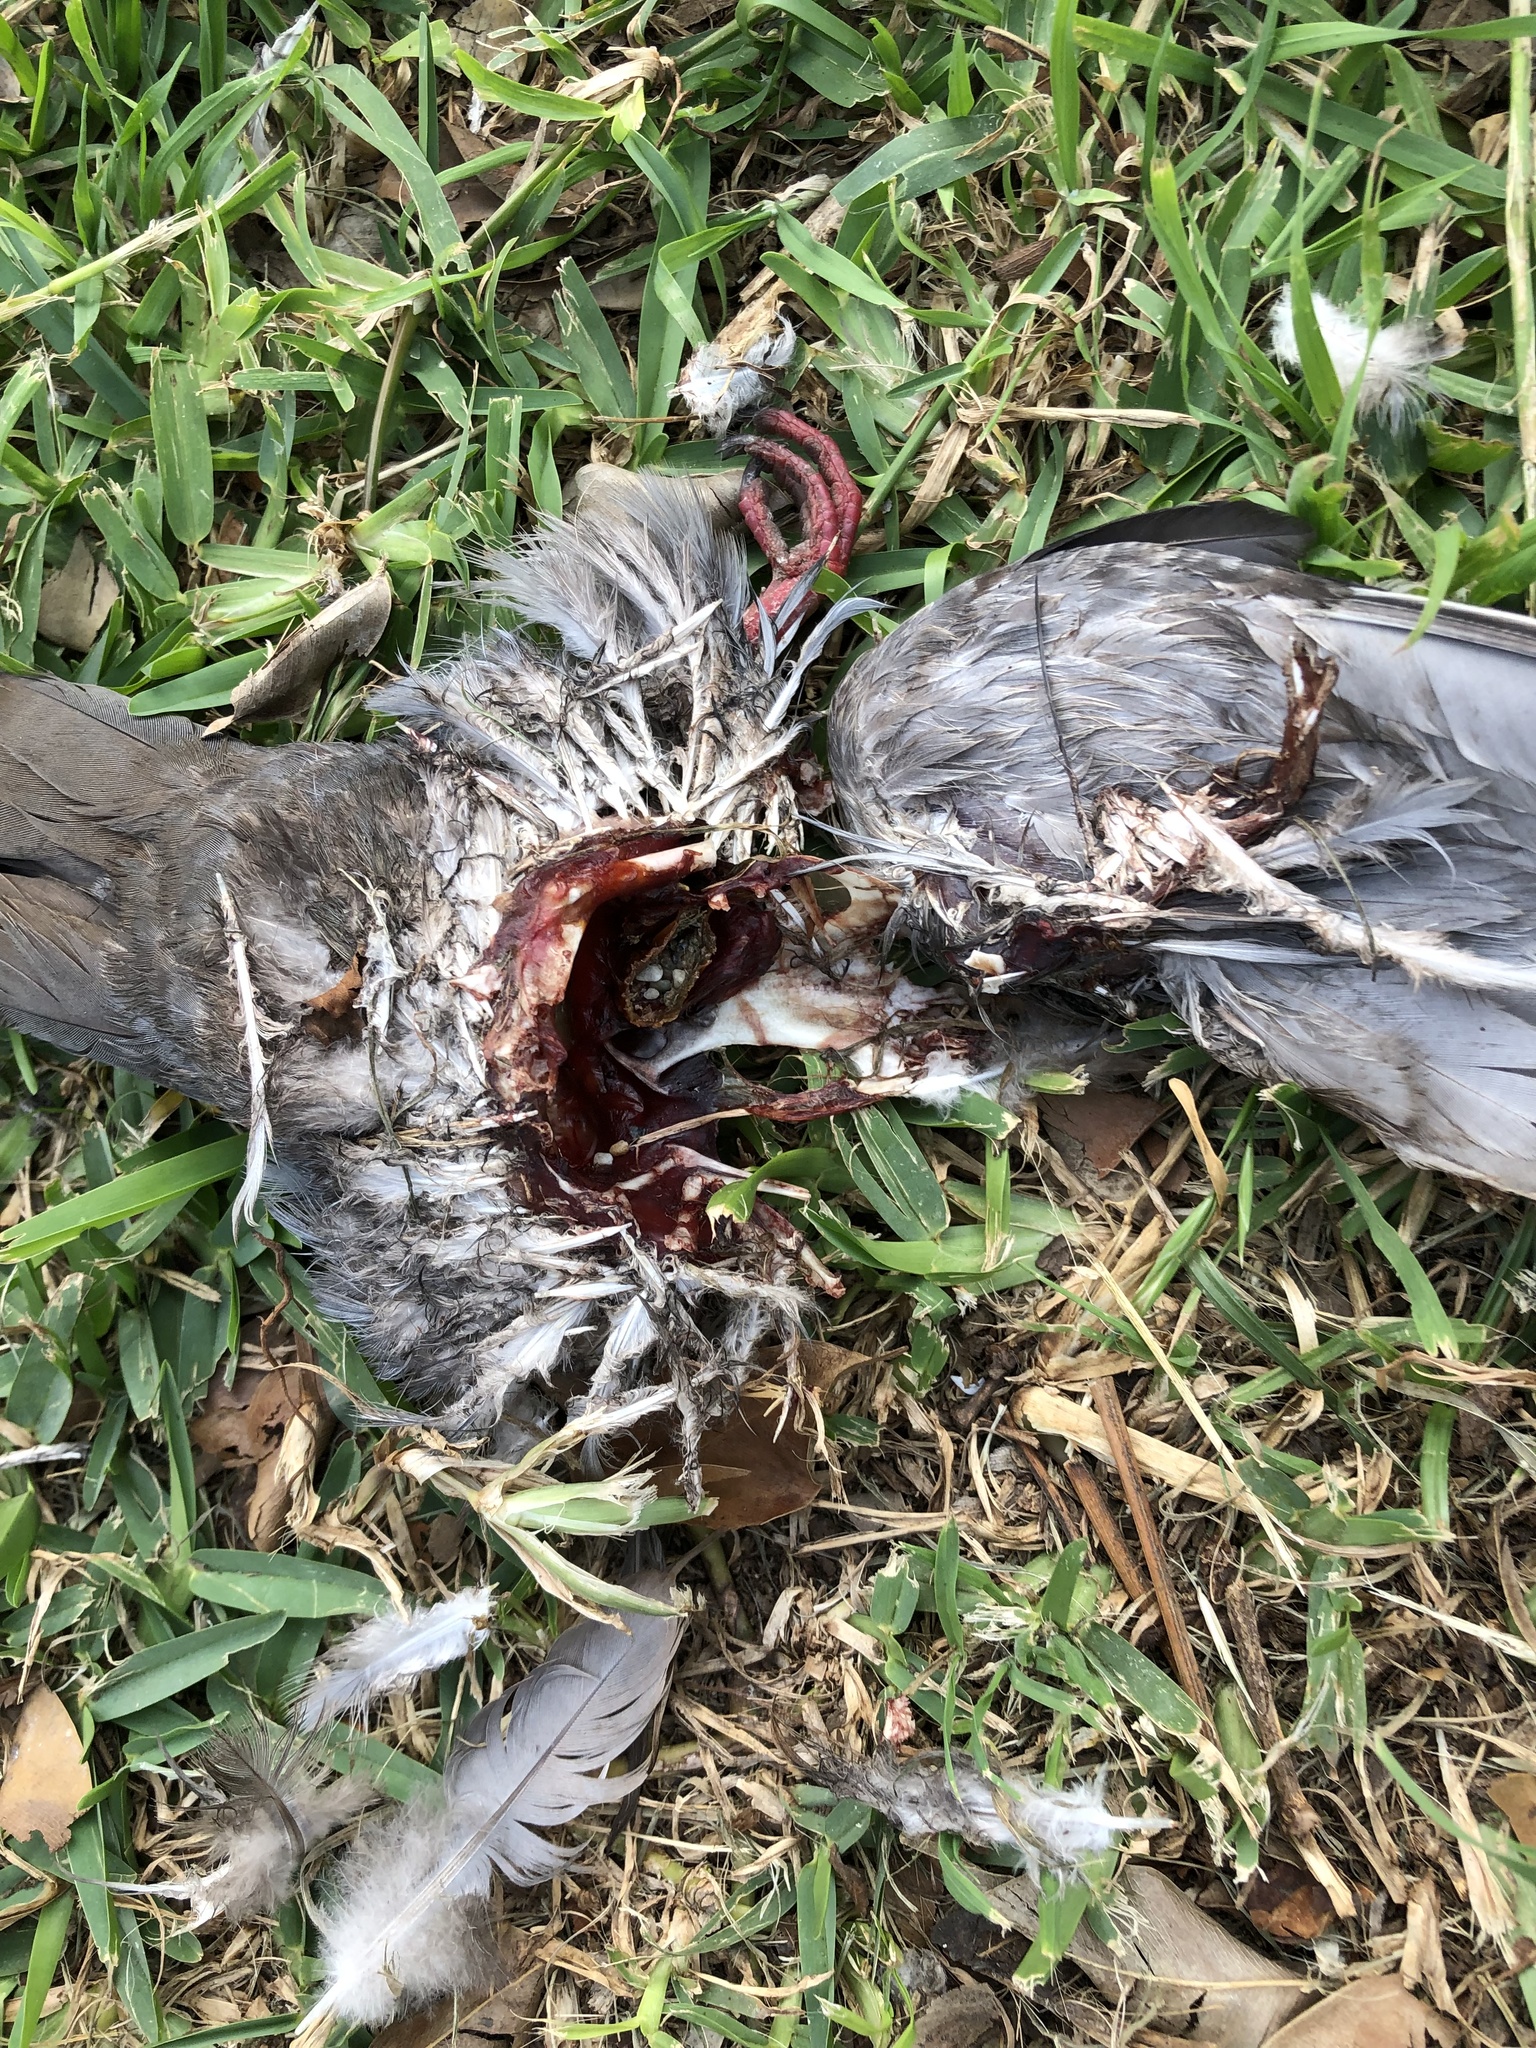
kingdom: Animalia
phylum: Chordata
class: Aves
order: Columbiformes
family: Columbidae
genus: Zenaida
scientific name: Zenaida meloda
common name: West peruvian dove
